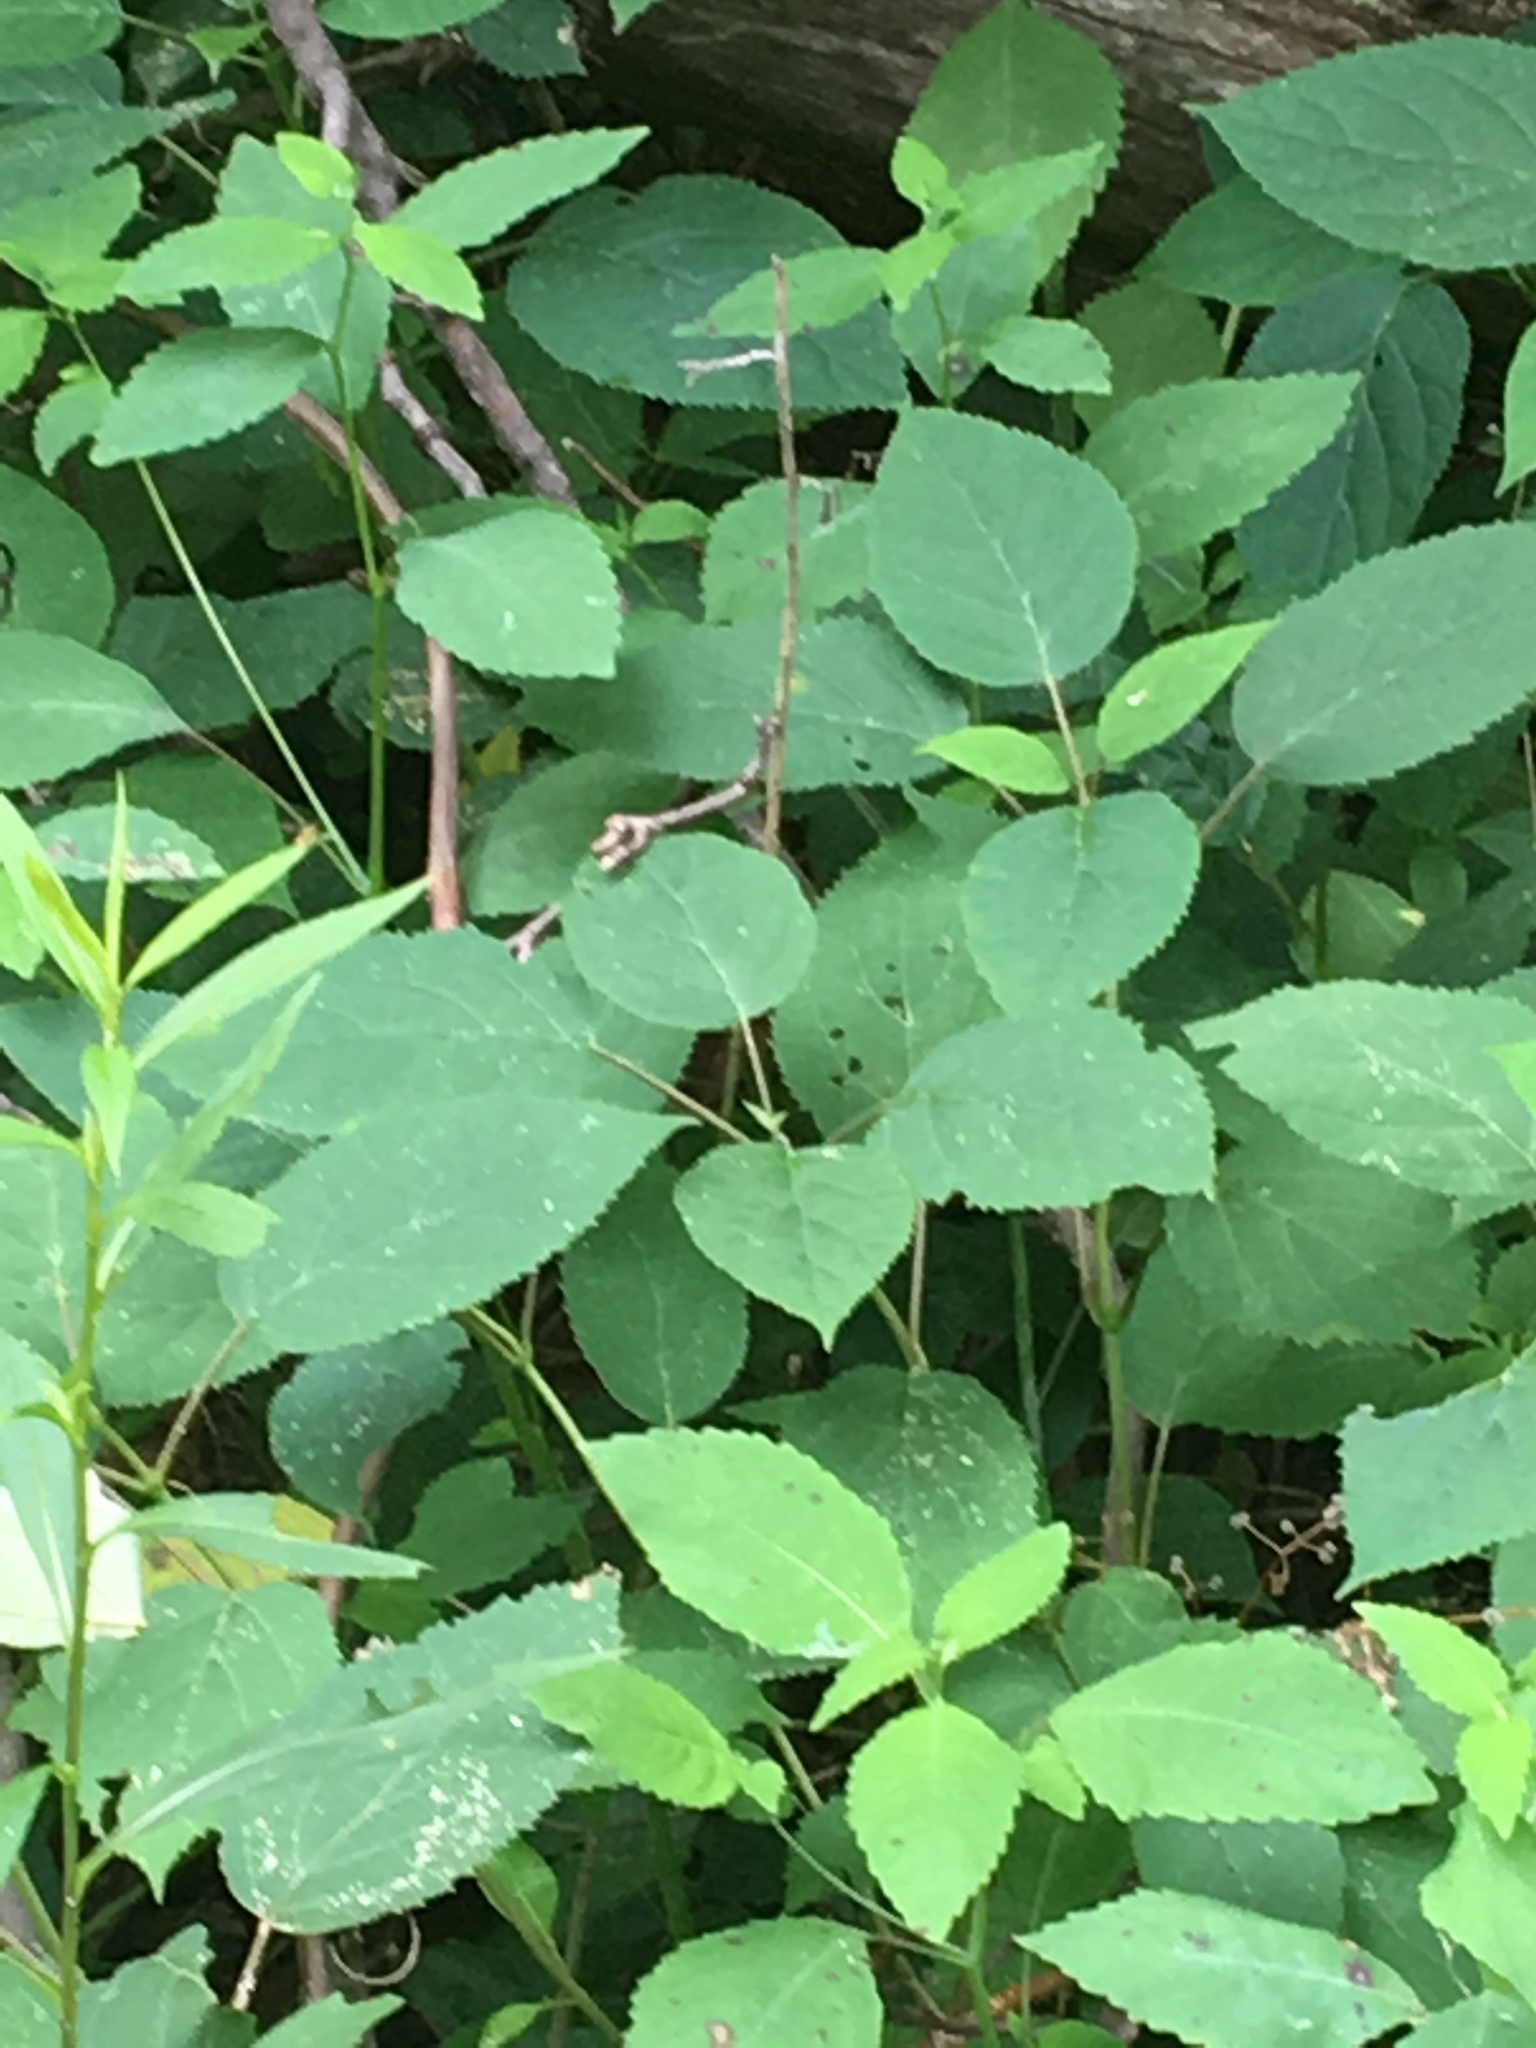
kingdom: Plantae
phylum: Tracheophyta
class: Magnoliopsida
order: Cornales
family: Hydrangeaceae
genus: Hydrangea
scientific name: Hydrangea arborescens
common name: Sevenbark
